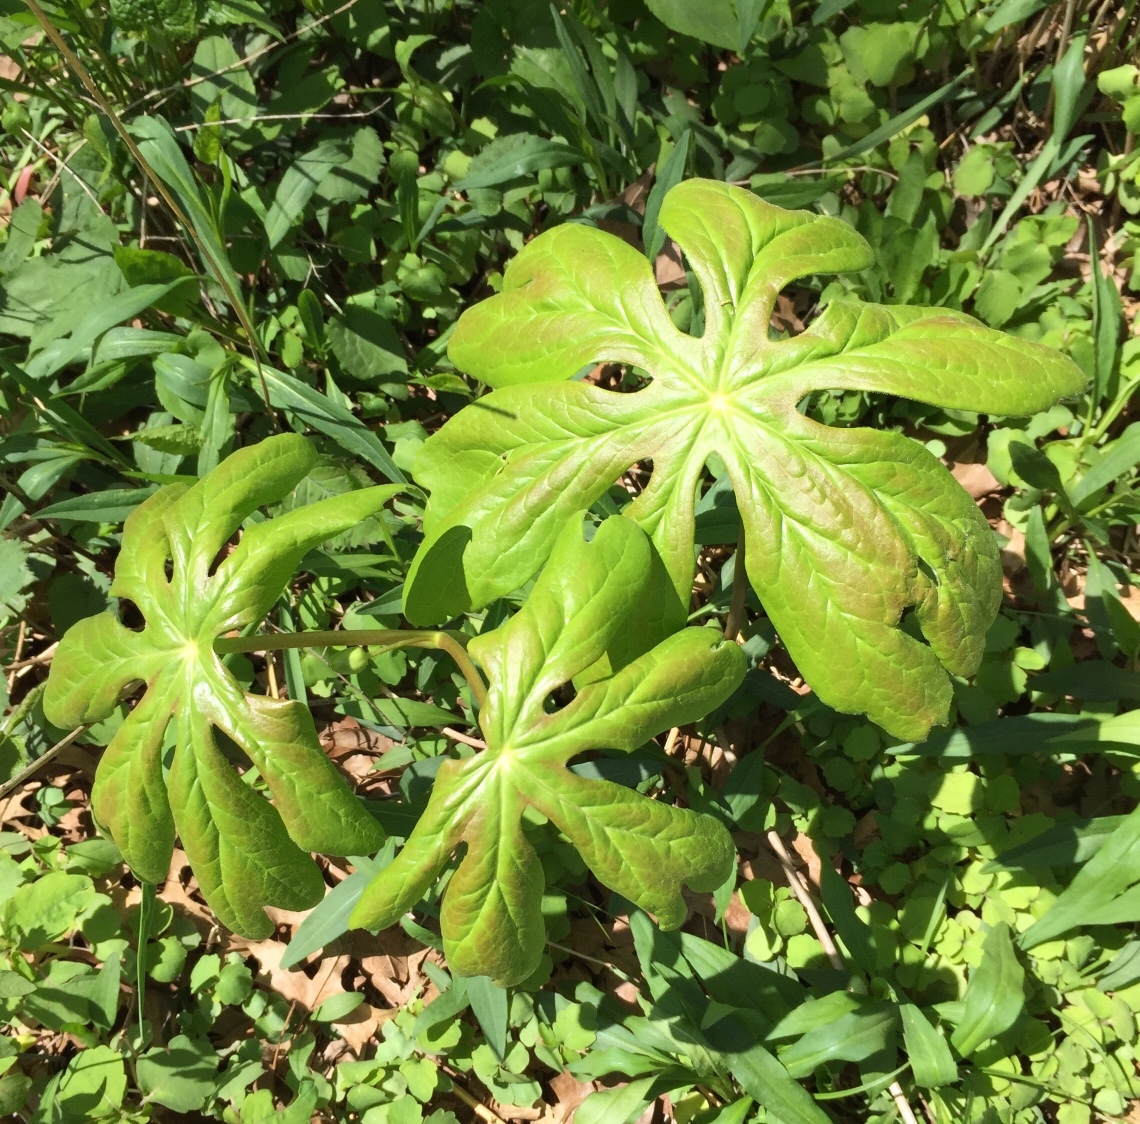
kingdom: Plantae
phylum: Tracheophyta
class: Magnoliopsida
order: Ranunculales
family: Berberidaceae
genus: Podophyllum
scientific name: Podophyllum peltatum
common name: Wild mandrake
